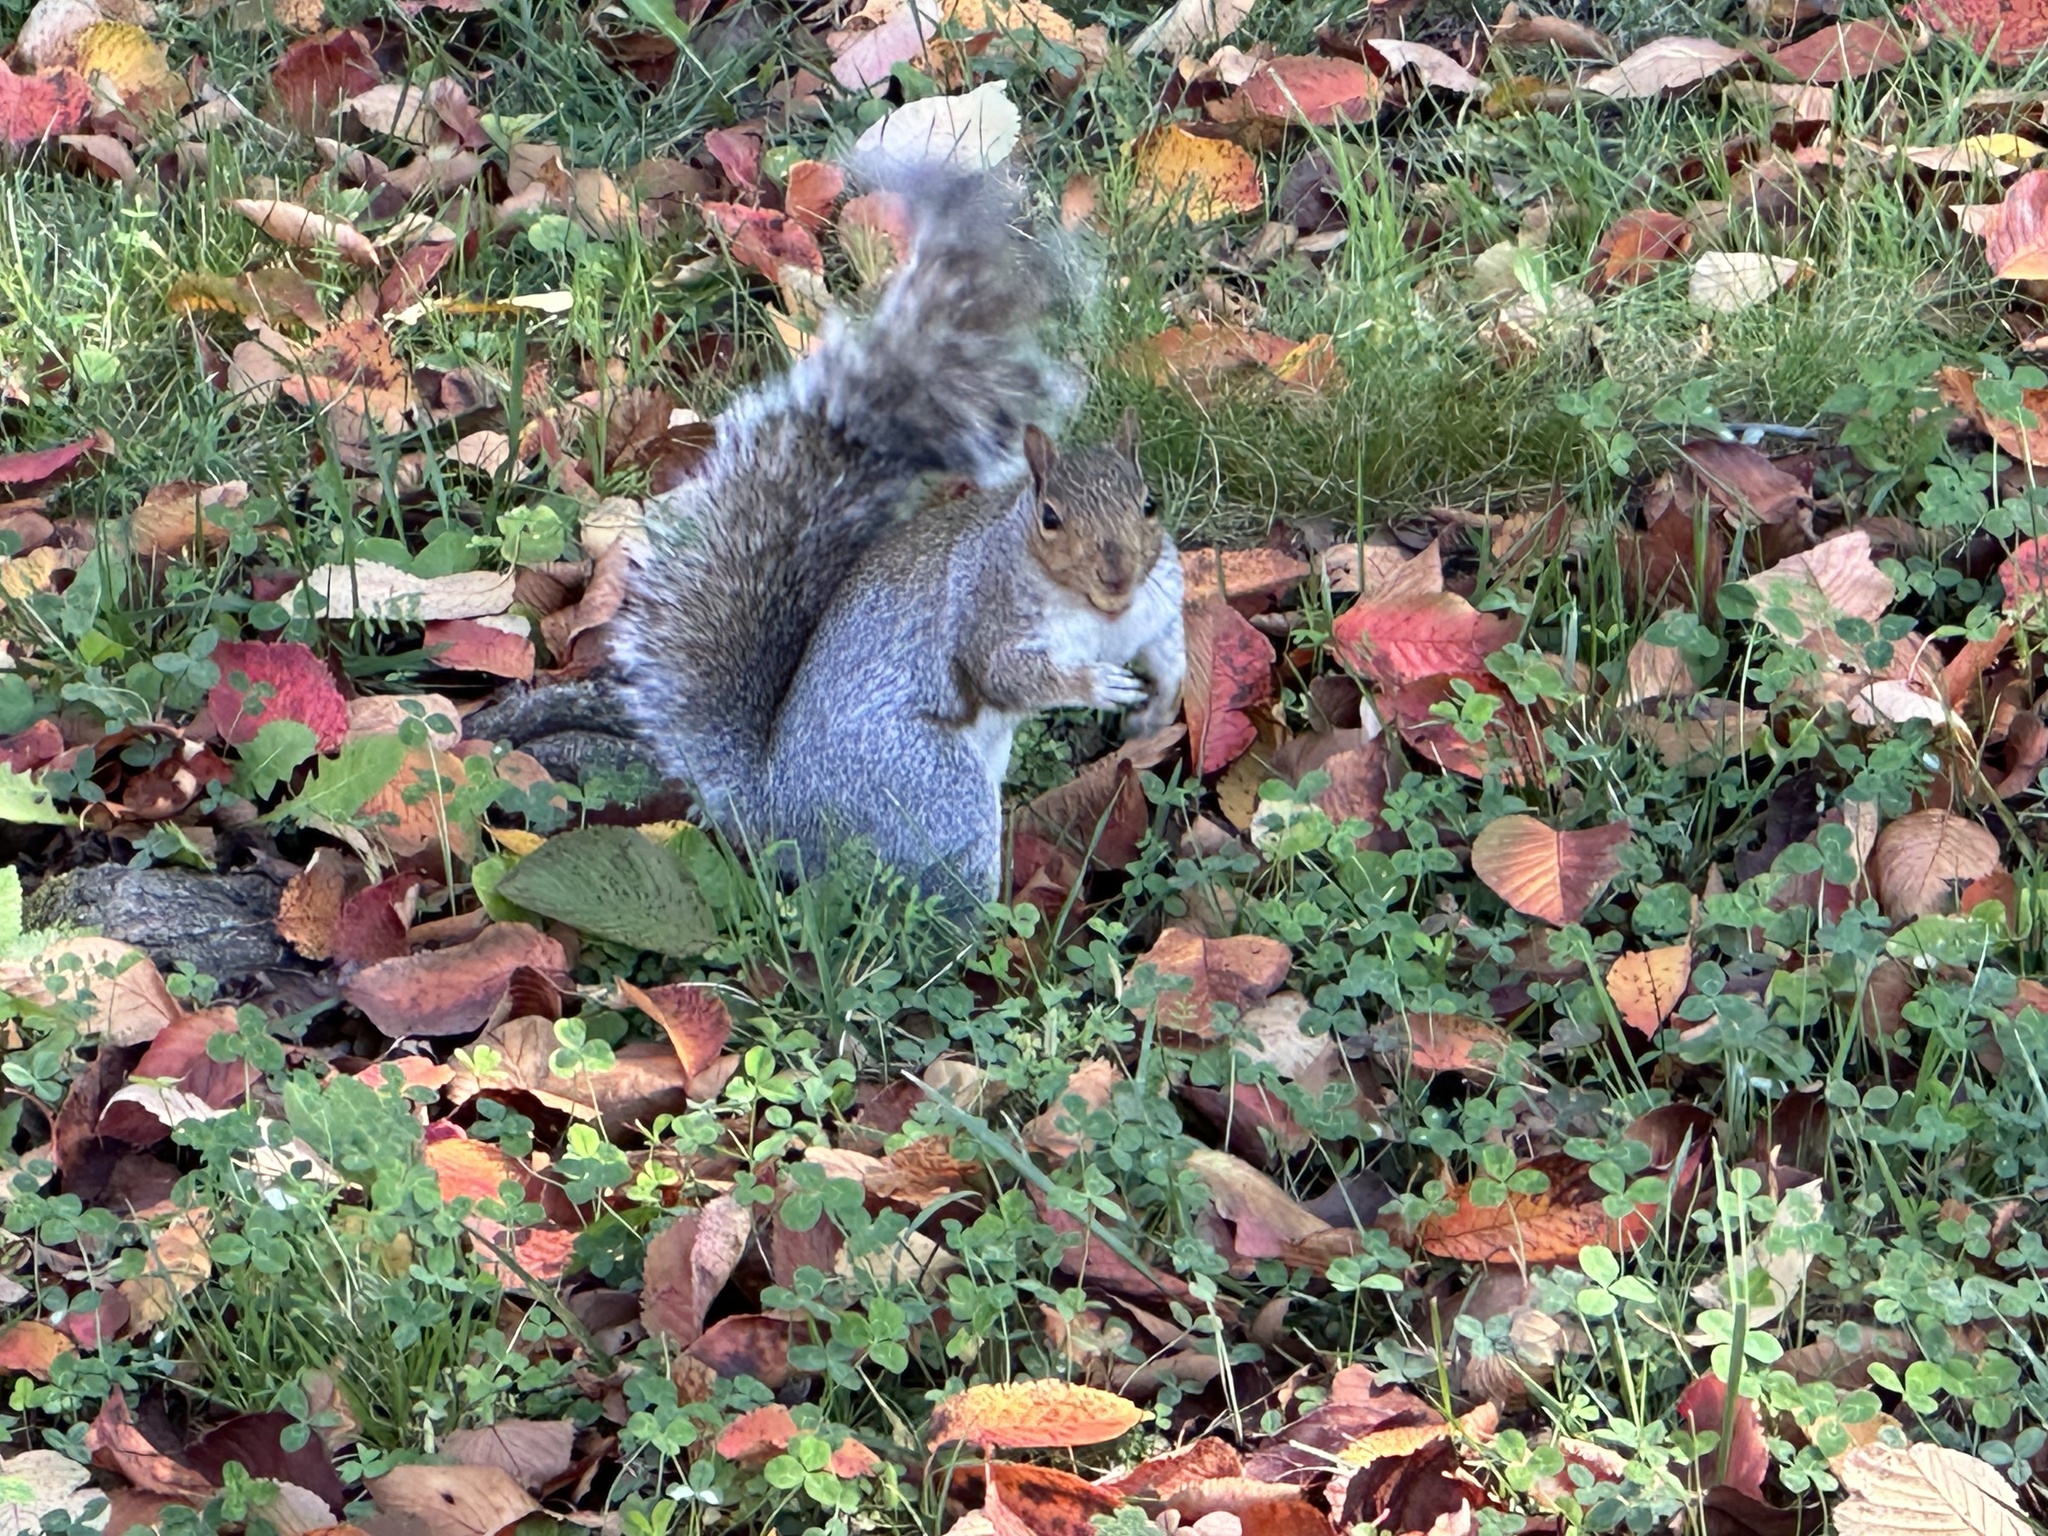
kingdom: Animalia
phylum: Chordata
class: Mammalia
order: Rodentia
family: Sciuridae
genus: Sciurus
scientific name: Sciurus carolinensis
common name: Eastern gray squirrel
